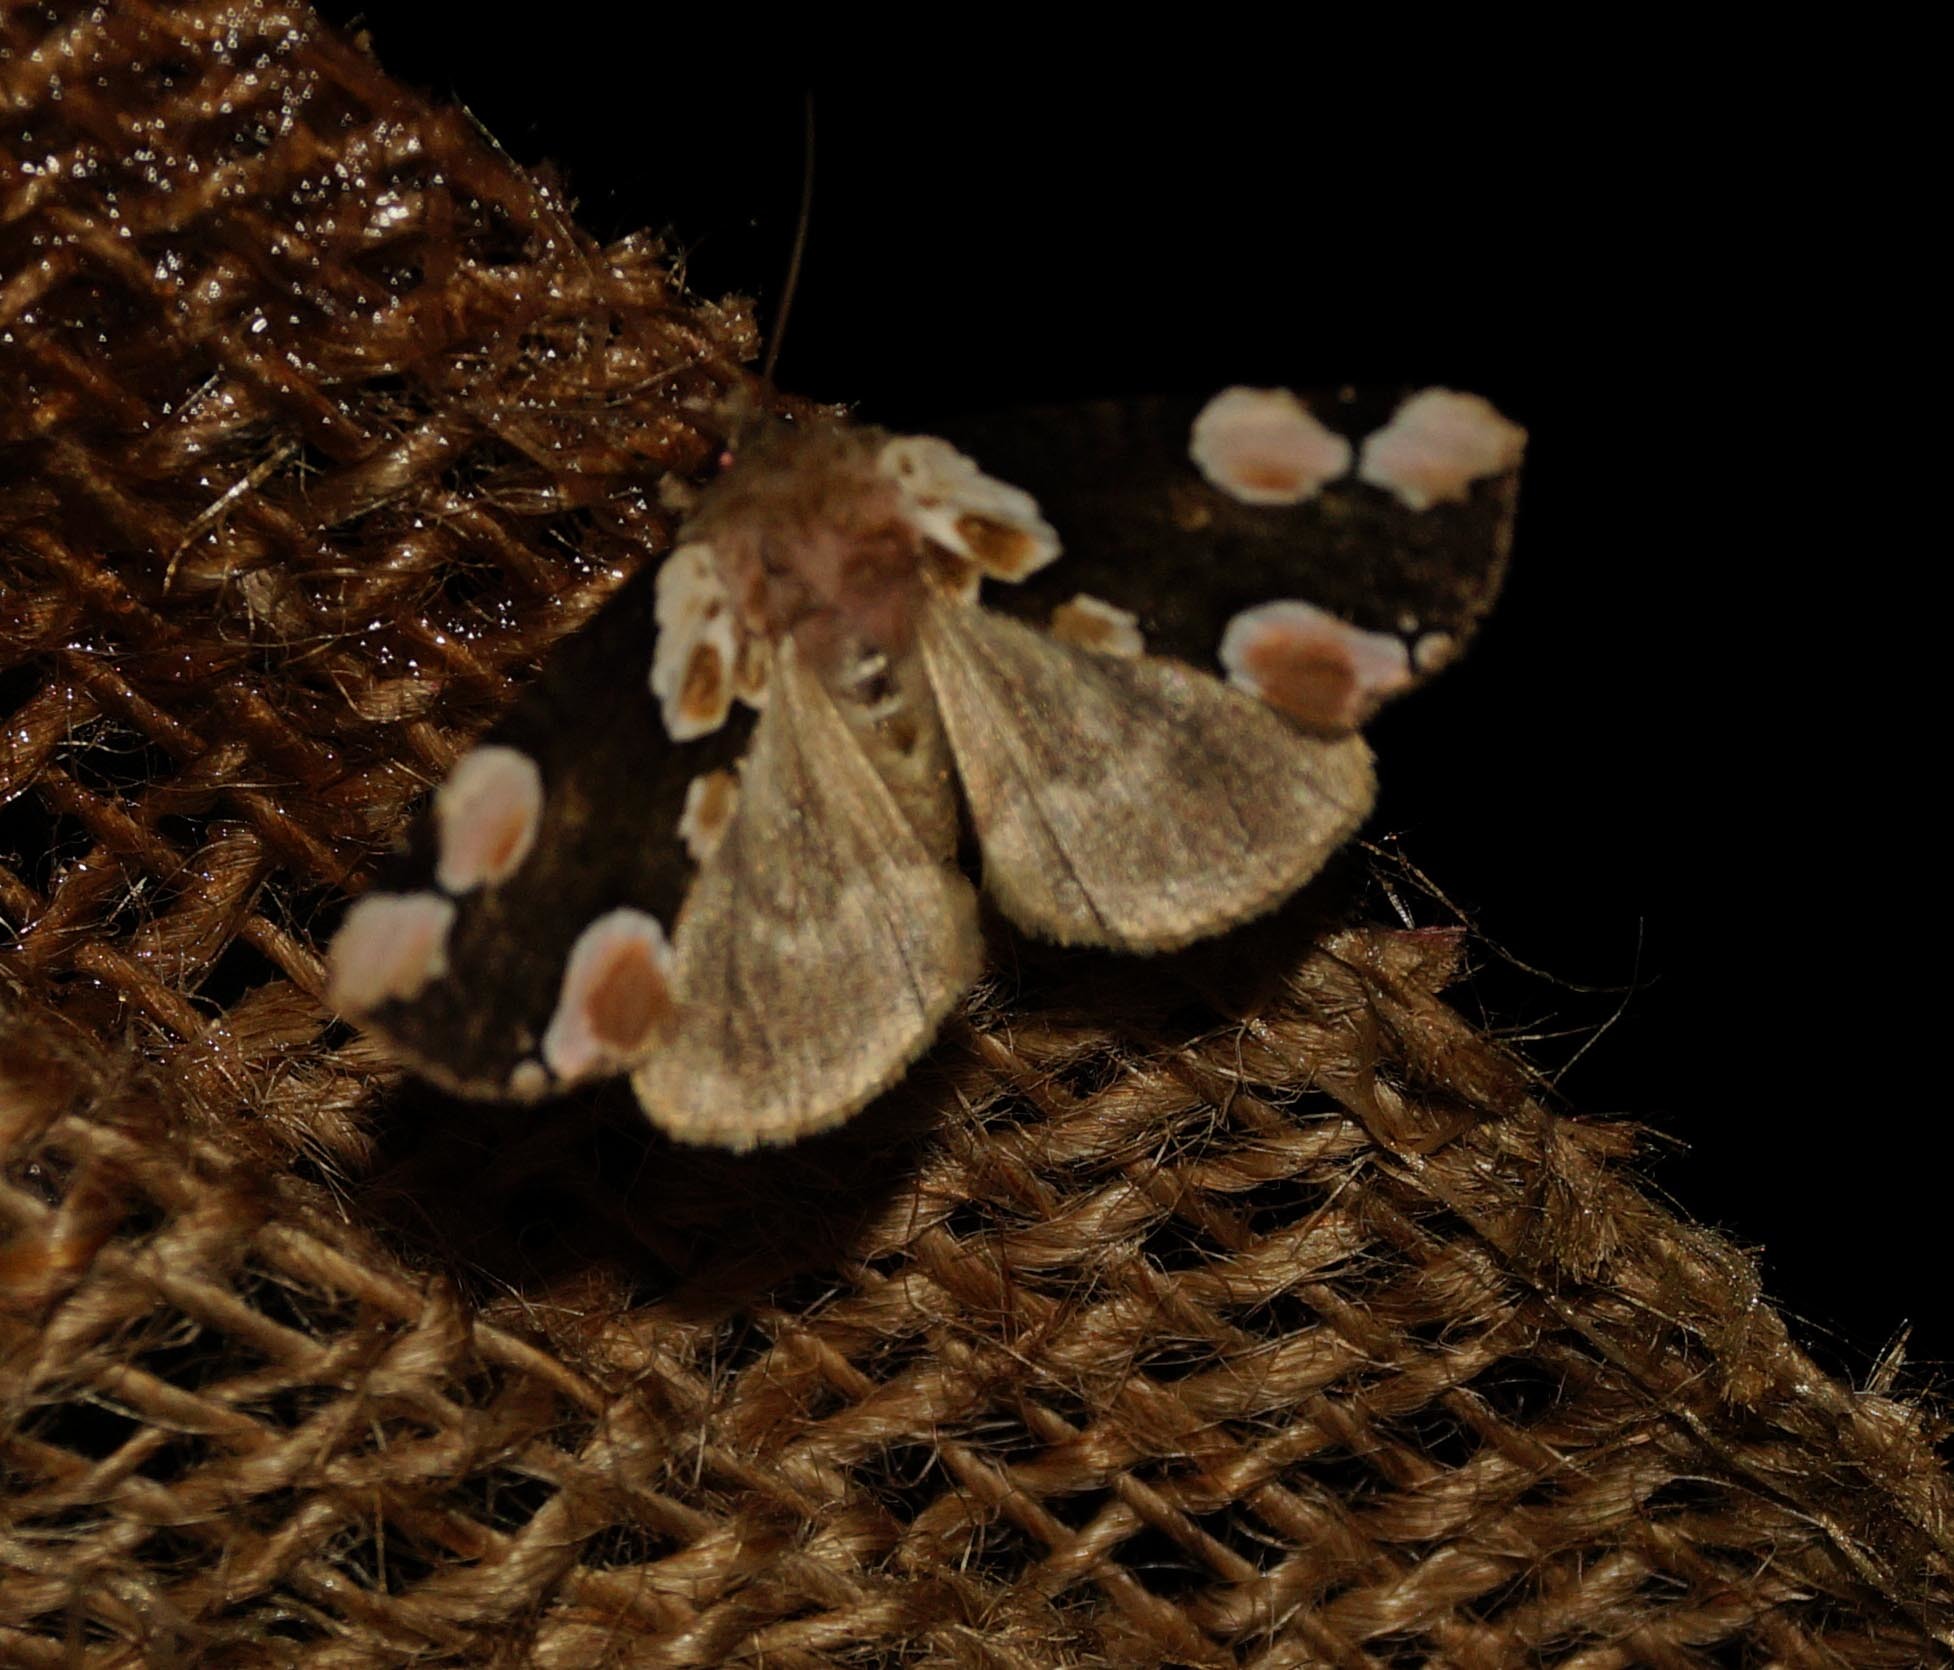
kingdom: Animalia
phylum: Arthropoda
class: Insecta
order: Lepidoptera
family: Drepanidae
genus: Thyatira
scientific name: Thyatira batis
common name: Peach blossom
